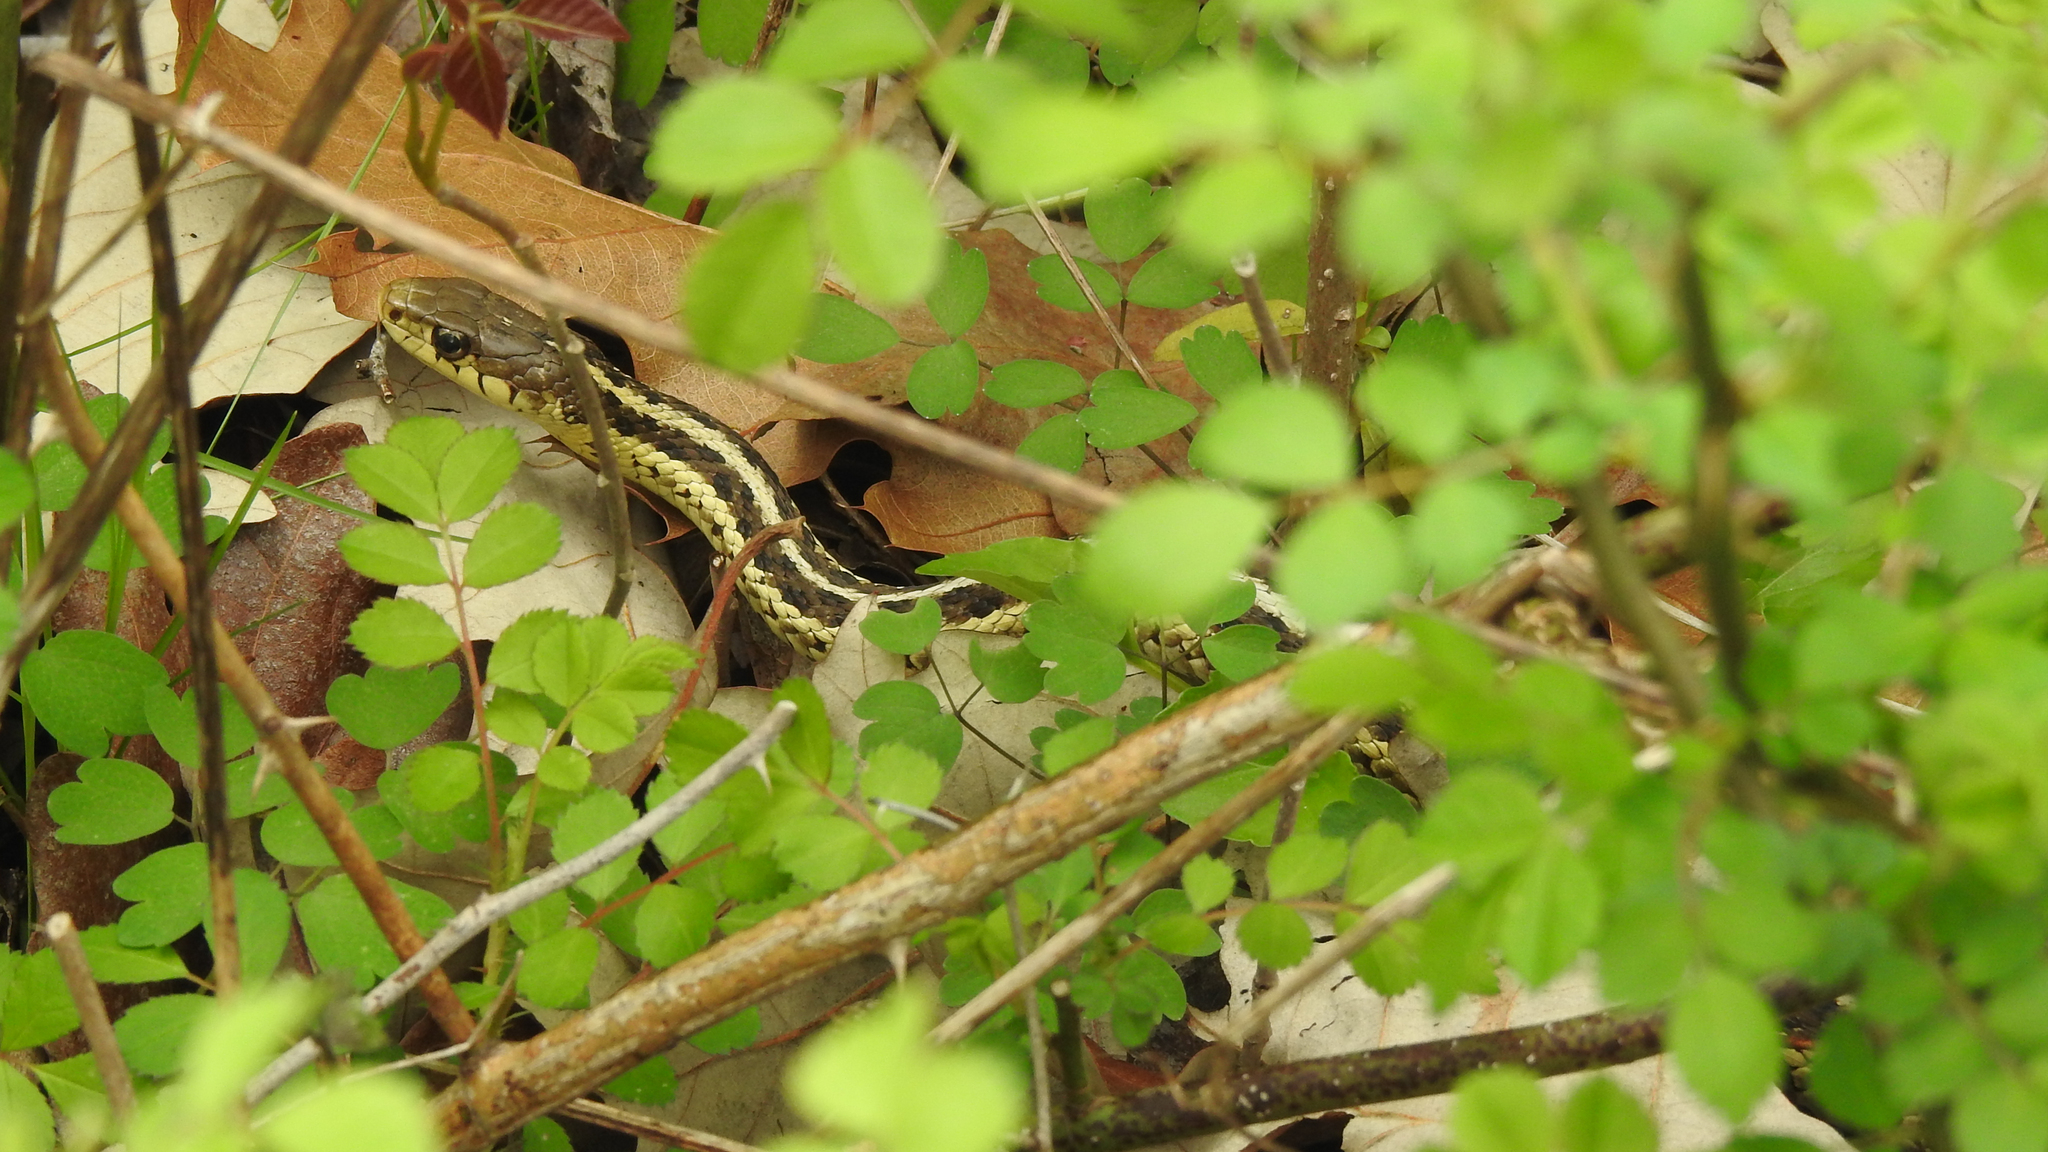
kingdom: Animalia
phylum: Chordata
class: Squamata
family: Colubridae
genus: Thamnophis
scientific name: Thamnophis sirtalis
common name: Common garter snake
